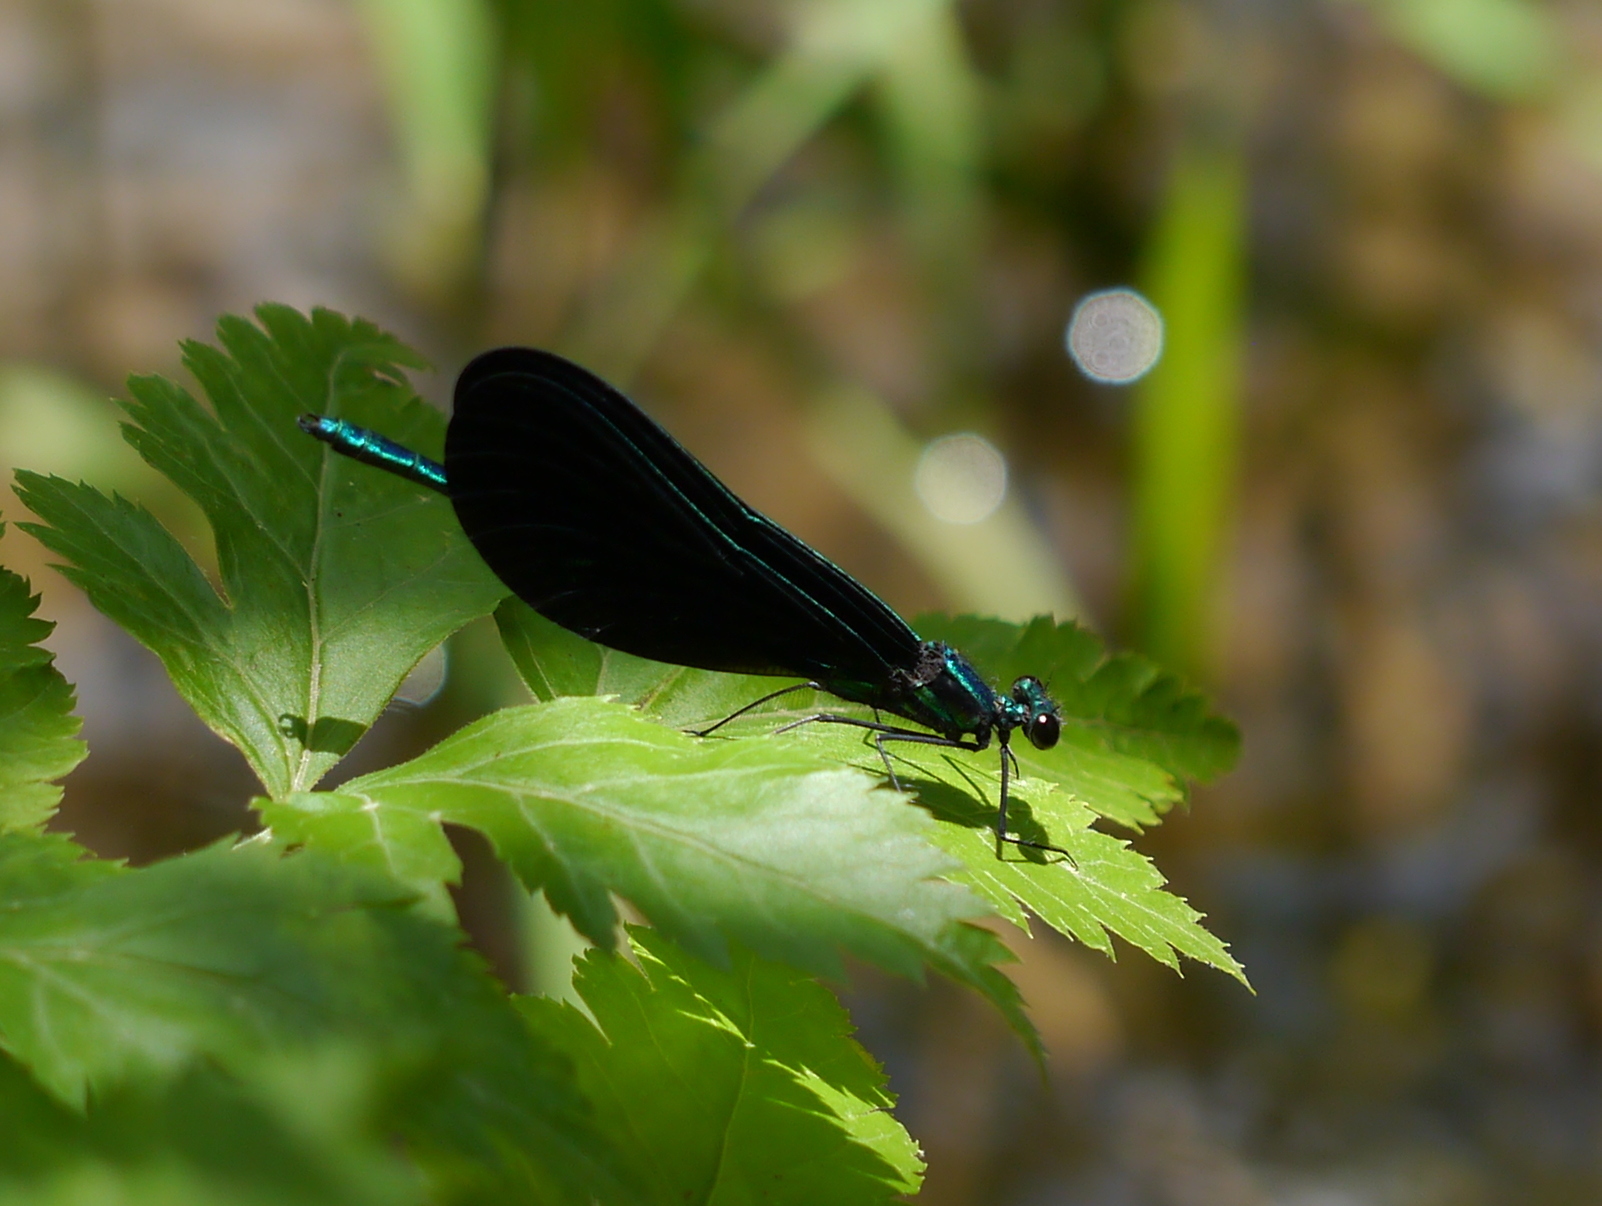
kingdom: Animalia
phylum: Arthropoda
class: Insecta
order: Odonata
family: Calopterygidae
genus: Calopteryx
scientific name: Calopteryx maculata
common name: Ebony jewelwing
